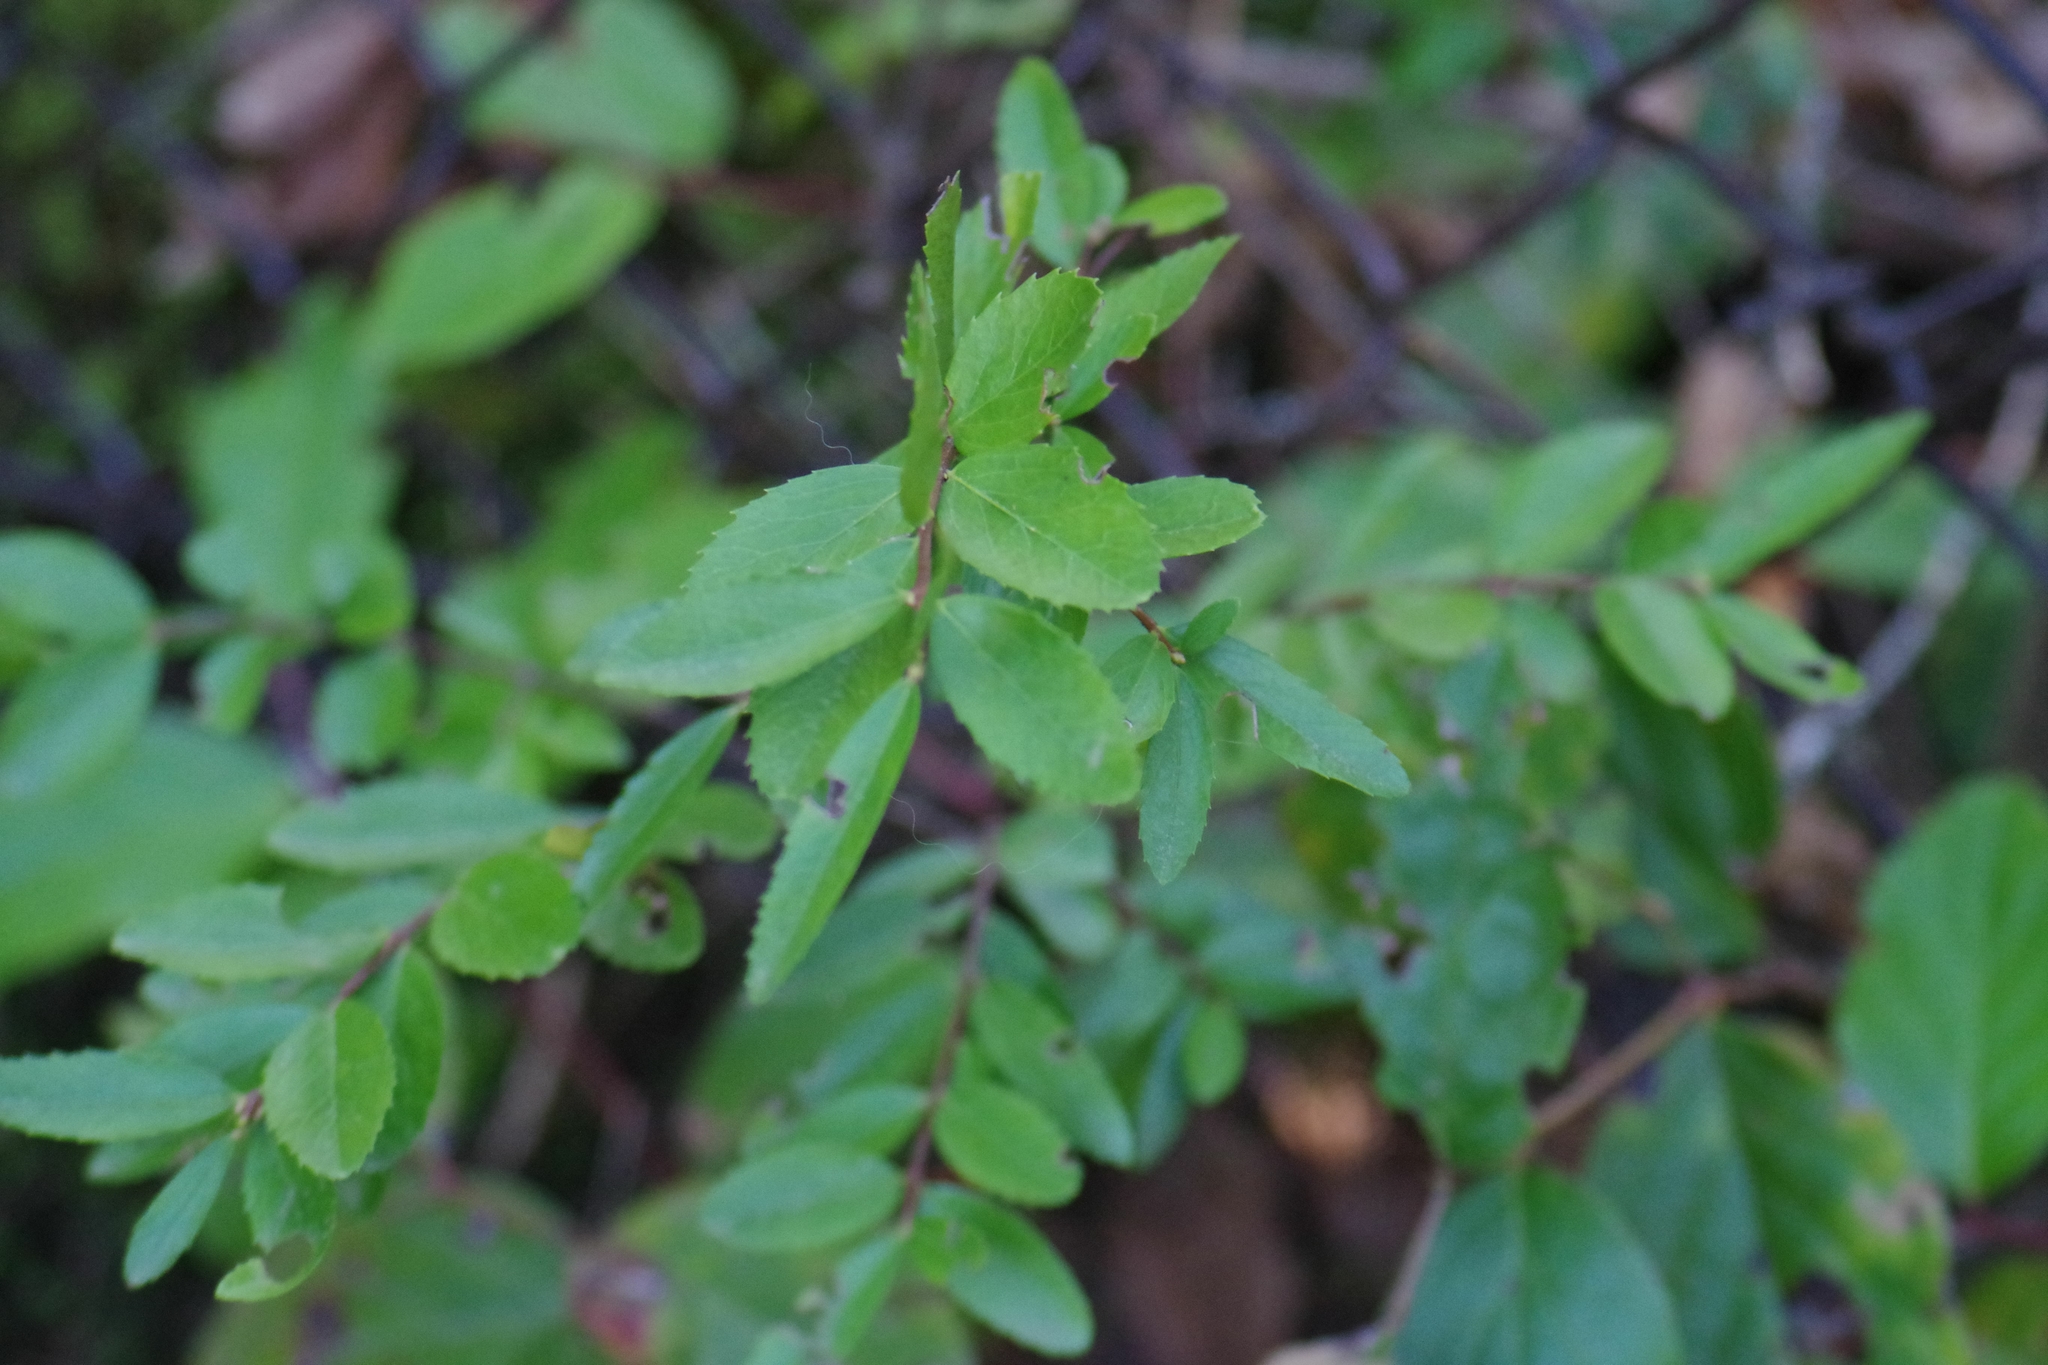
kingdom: Plantae
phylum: Tracheophyta
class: Magnoliopsida
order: Celastrales
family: Celastraceae
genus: Paxistima
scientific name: Paxistima myrsinites
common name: Mountain-lover
